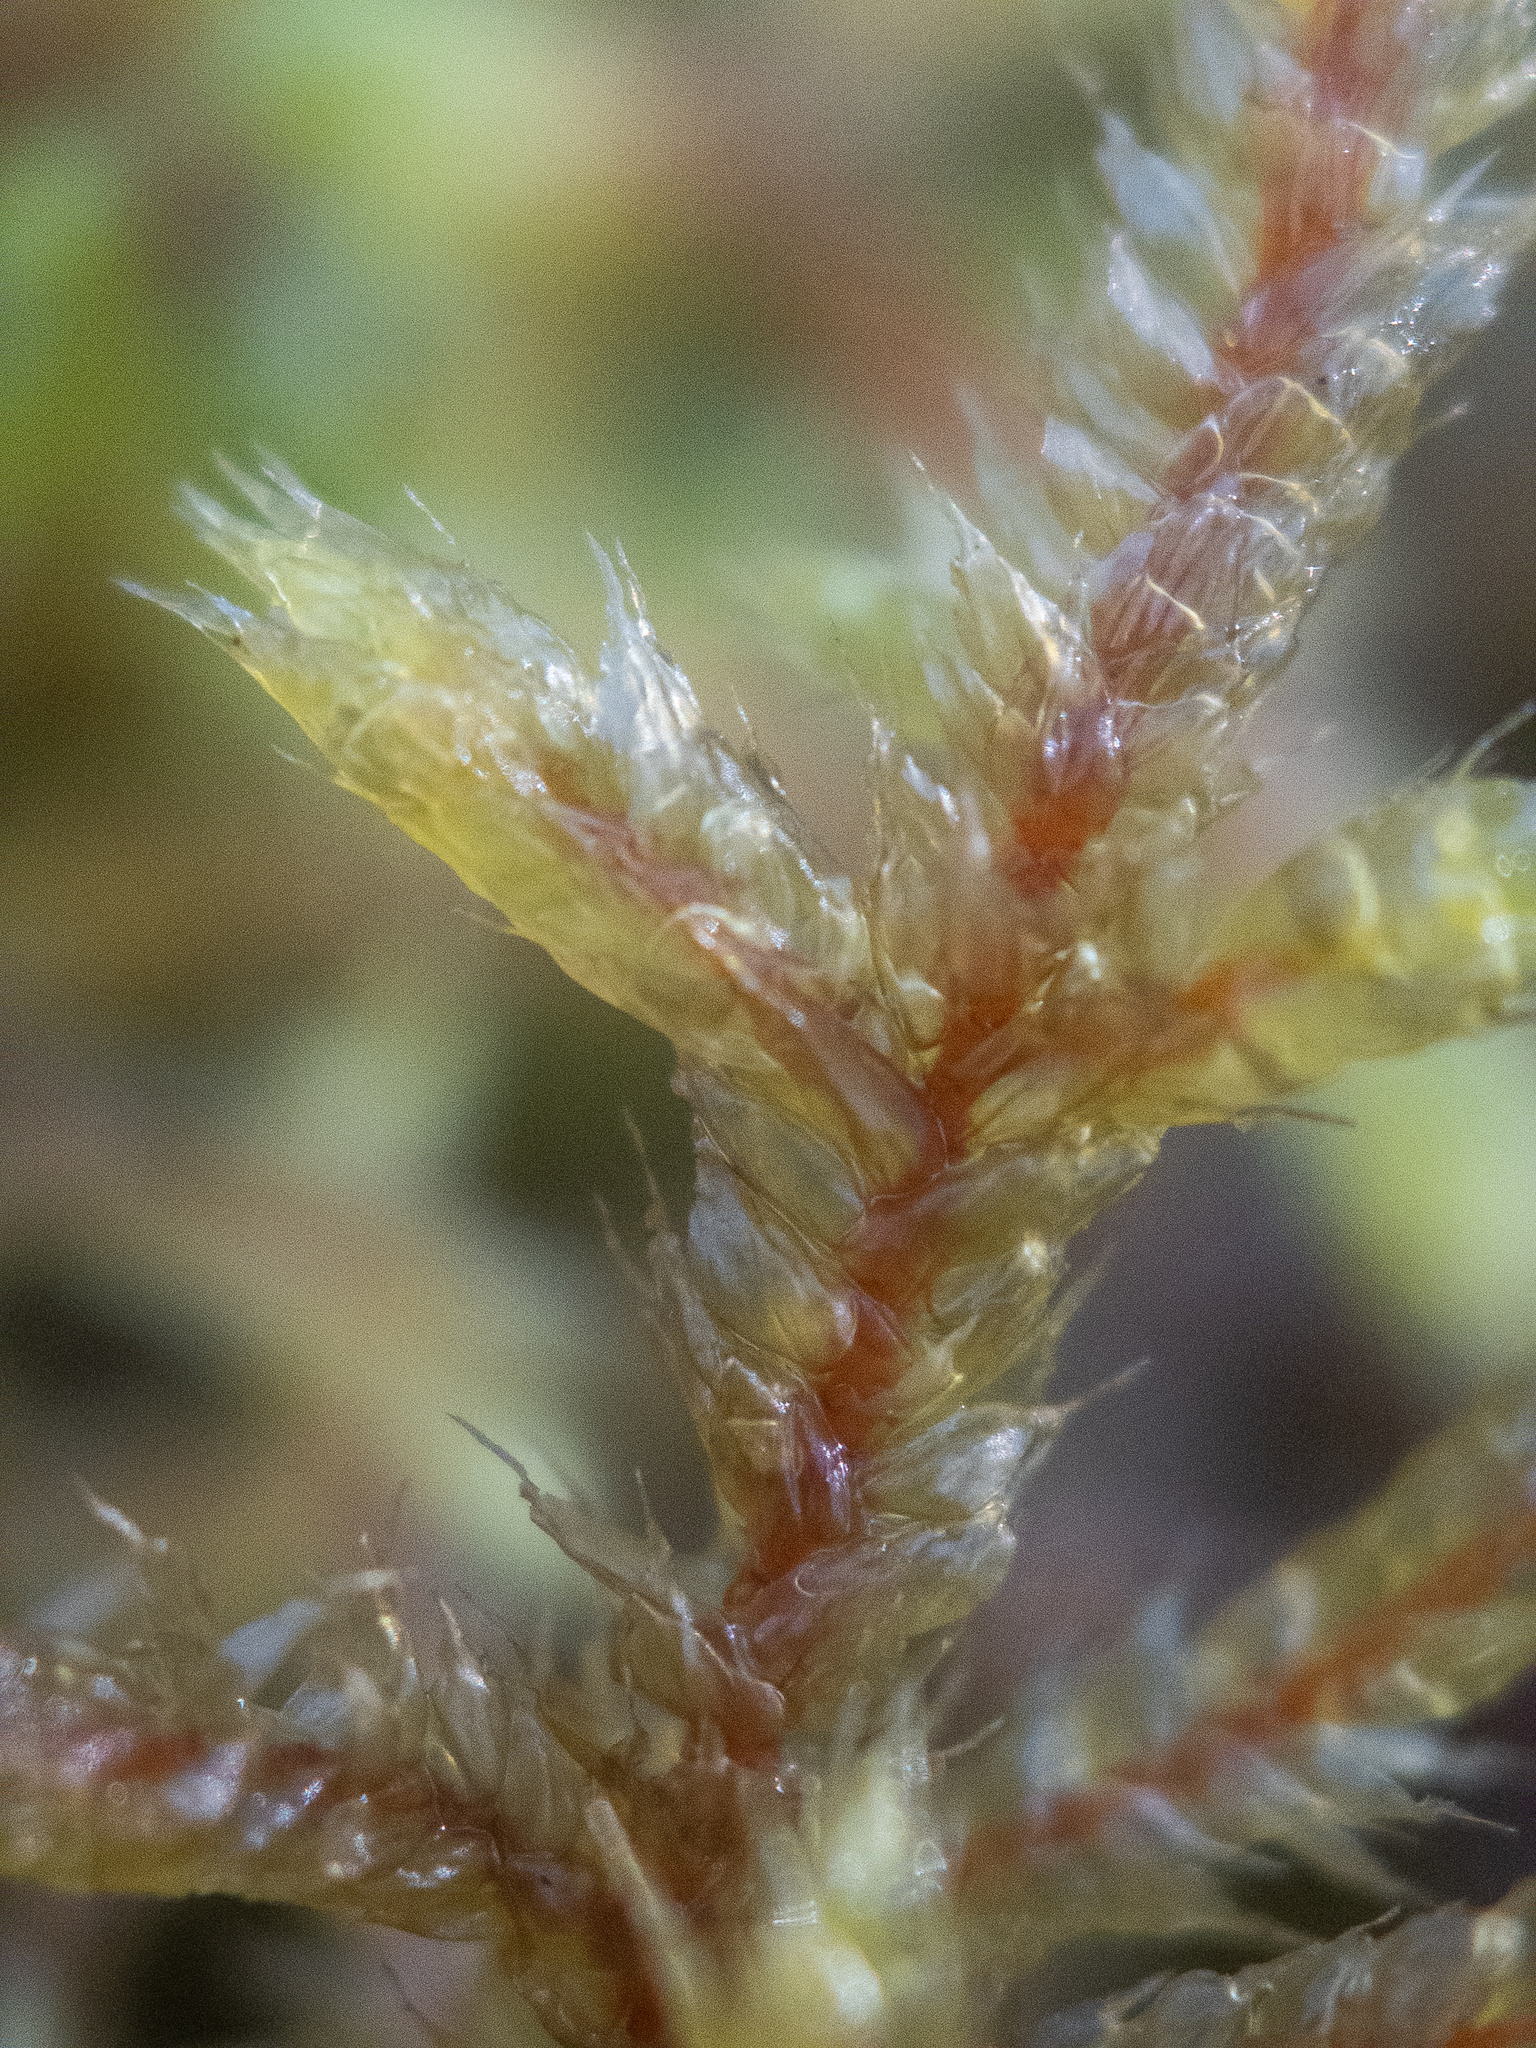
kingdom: Plantae
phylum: Bryophyta
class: Bryopsida
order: Hypnales
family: Hylocomiaceae
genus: Pleurozium
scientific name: Pleurozium schreberi
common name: Red-stemmed feather moss
